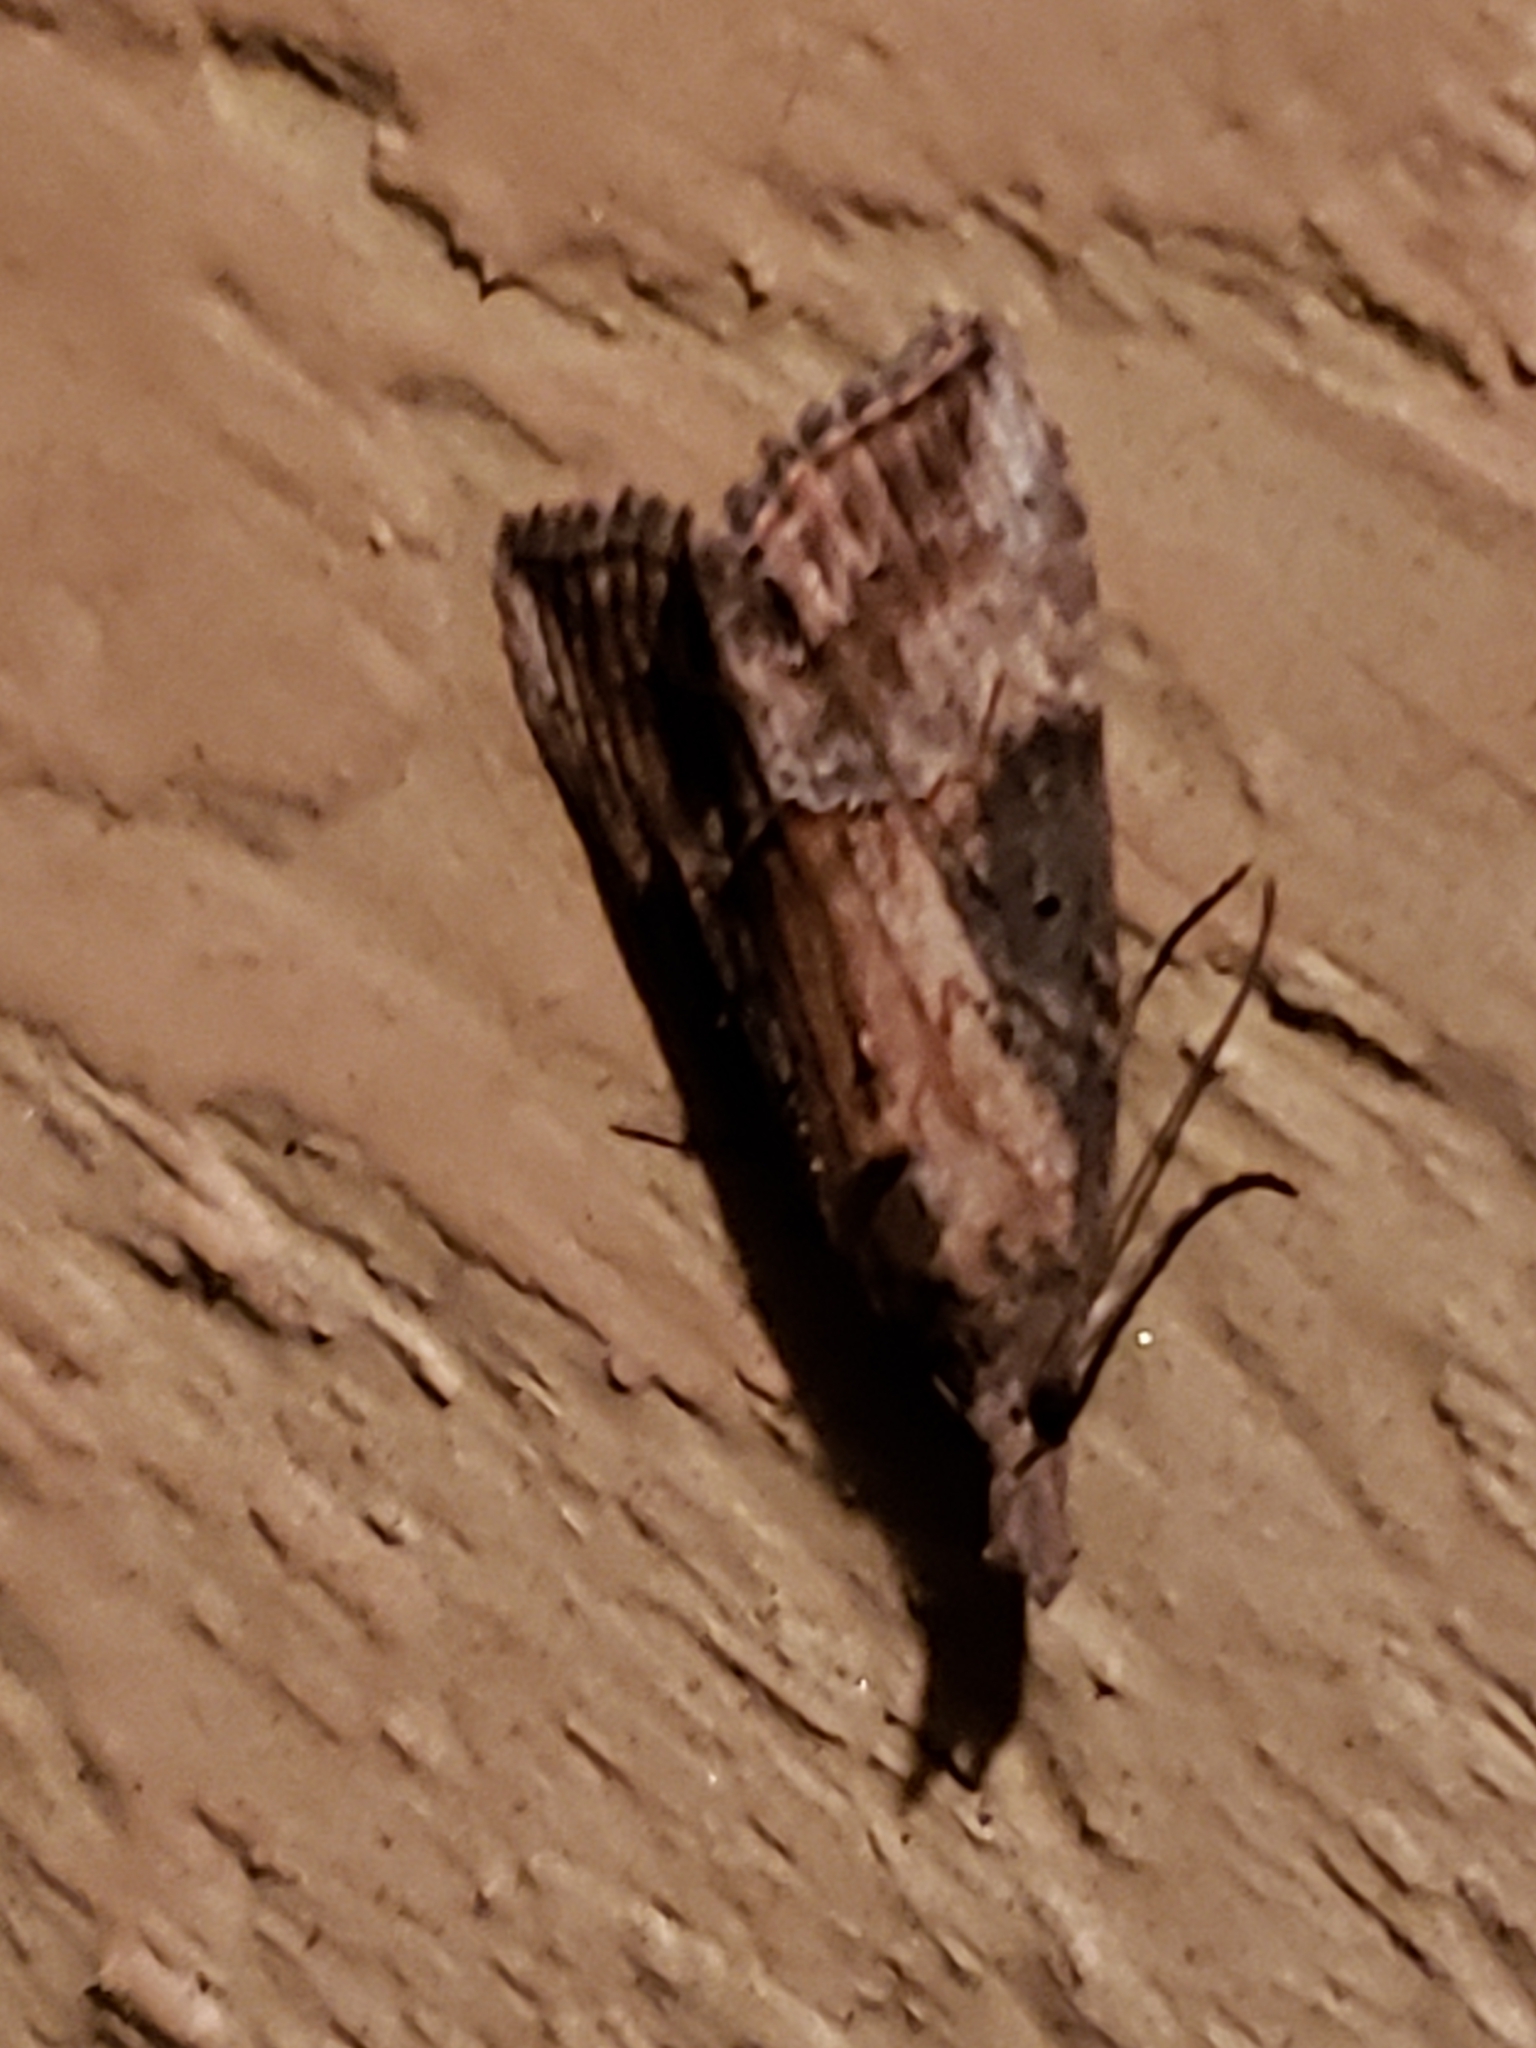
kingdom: Animalia
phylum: Arthropoda
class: Insecta
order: Lepidoptera
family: Erebidae
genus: Hypena
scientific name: Hypena scabra
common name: Green cloverworm
